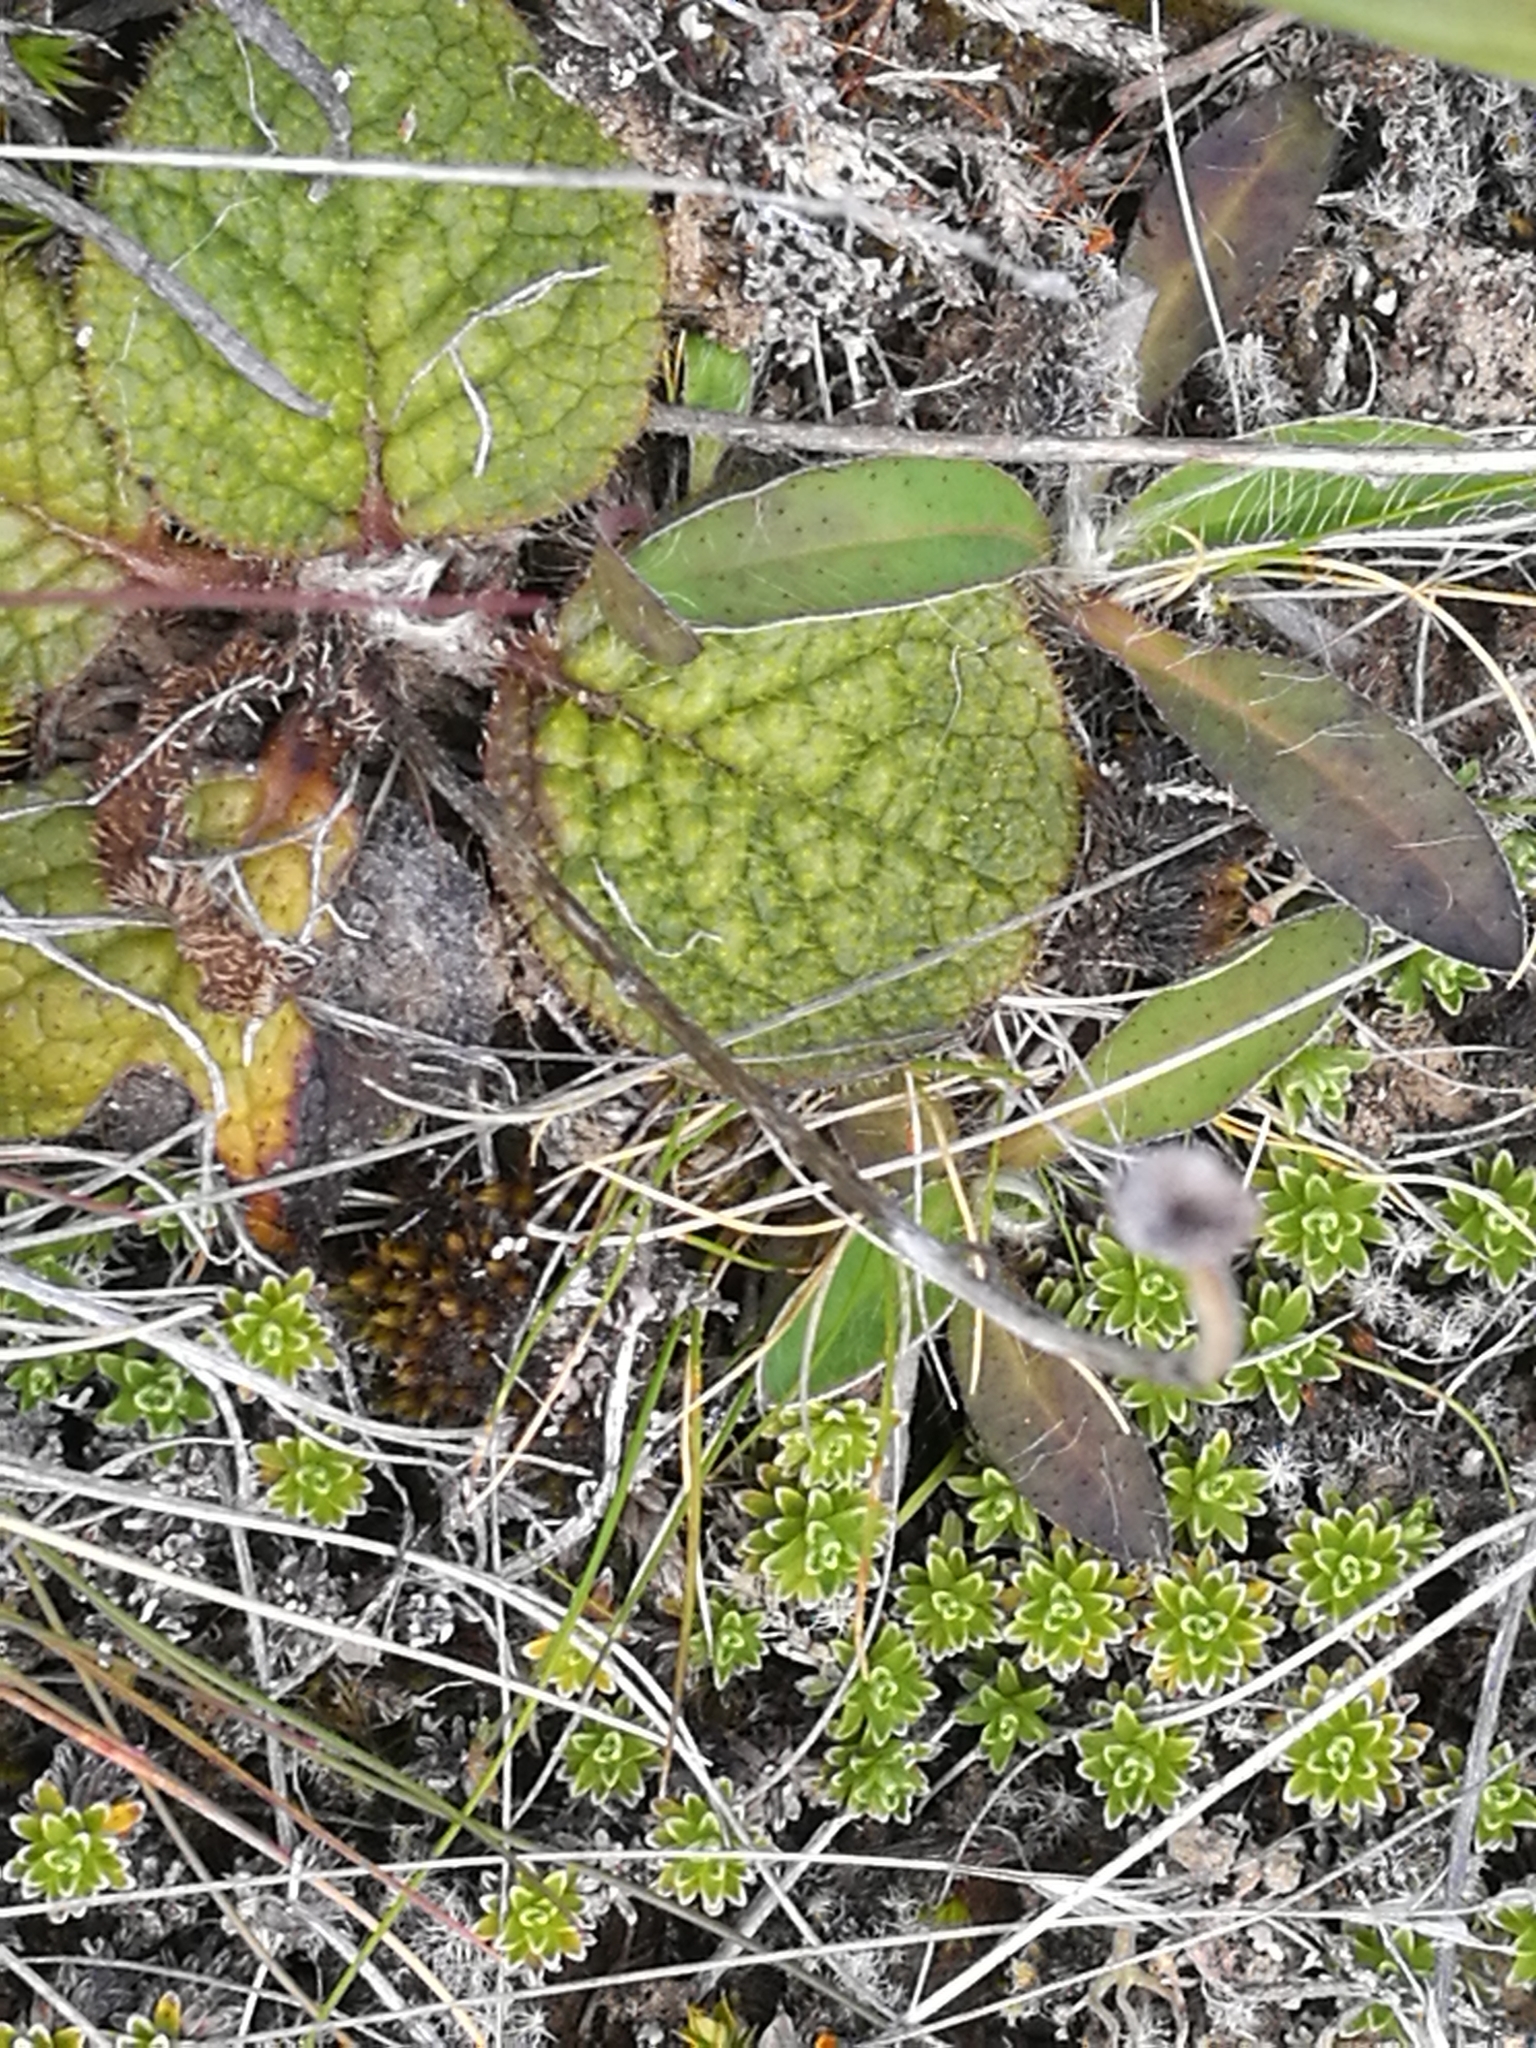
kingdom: Plantae
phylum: Tracheophyta
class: Magnoliopsida
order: Asterales
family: Asteraceae
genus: Brachyglottis
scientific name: Brachyglottis bellidioides
